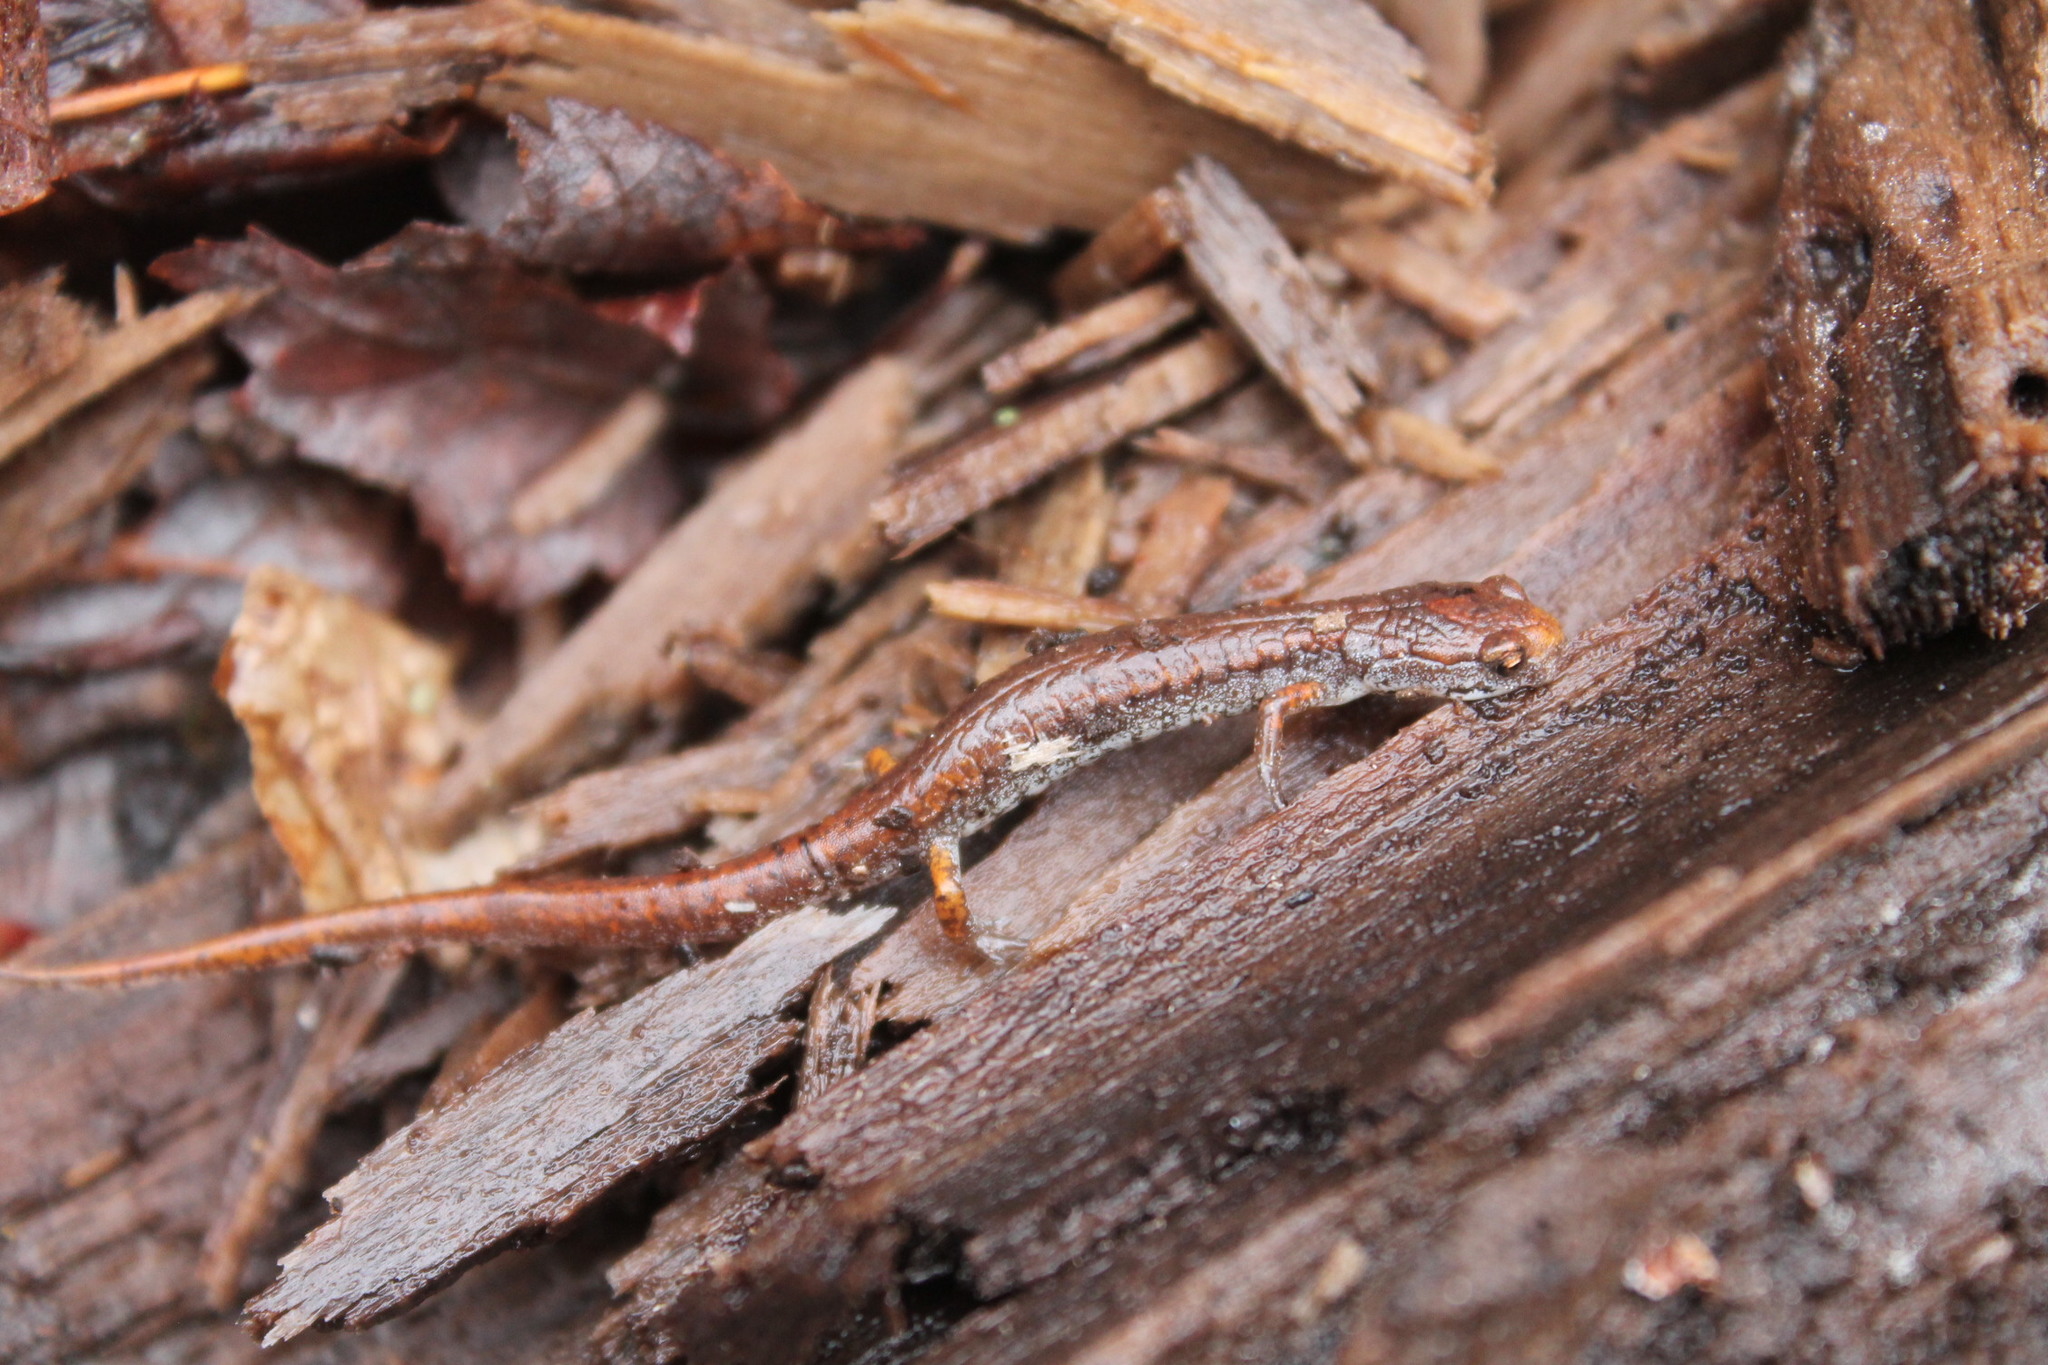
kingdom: Animalia
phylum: Chordata
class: Amphibia
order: Caudata
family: Plethodontidae
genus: Hemidactylium
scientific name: Hemidactylium scutatum
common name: Four-toed salamander
